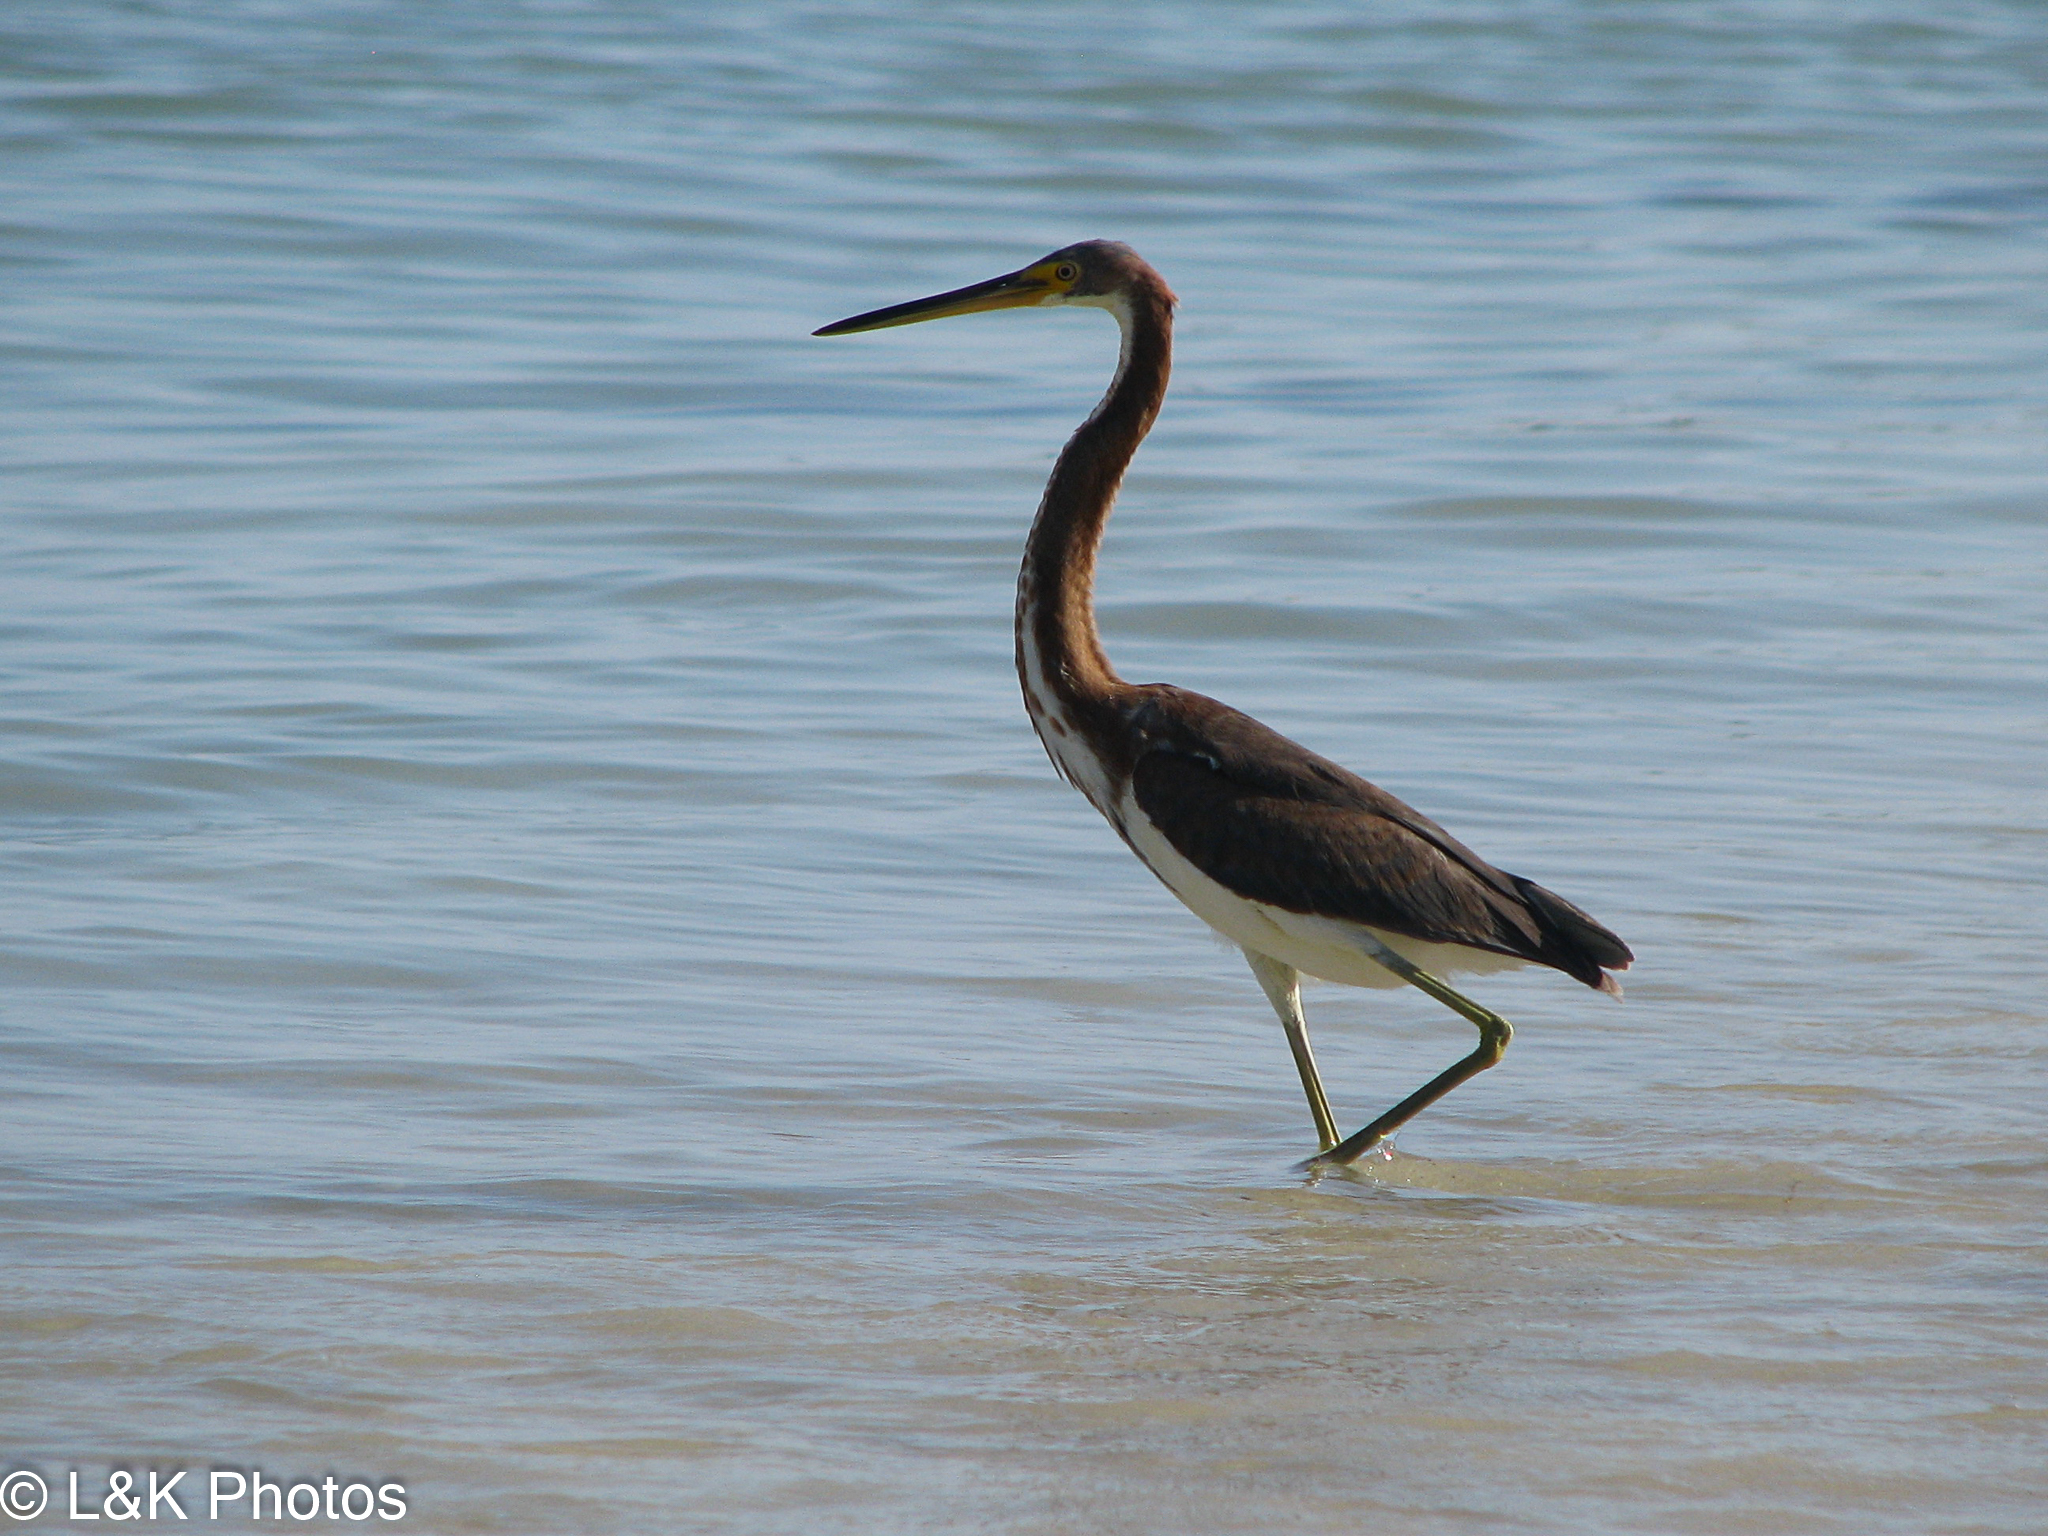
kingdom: Animalia
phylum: Chordata
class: Aves
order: Pelecaniformes
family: Ardeidae
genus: Egretta
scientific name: Egretta tricolor
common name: Tricolored heron
